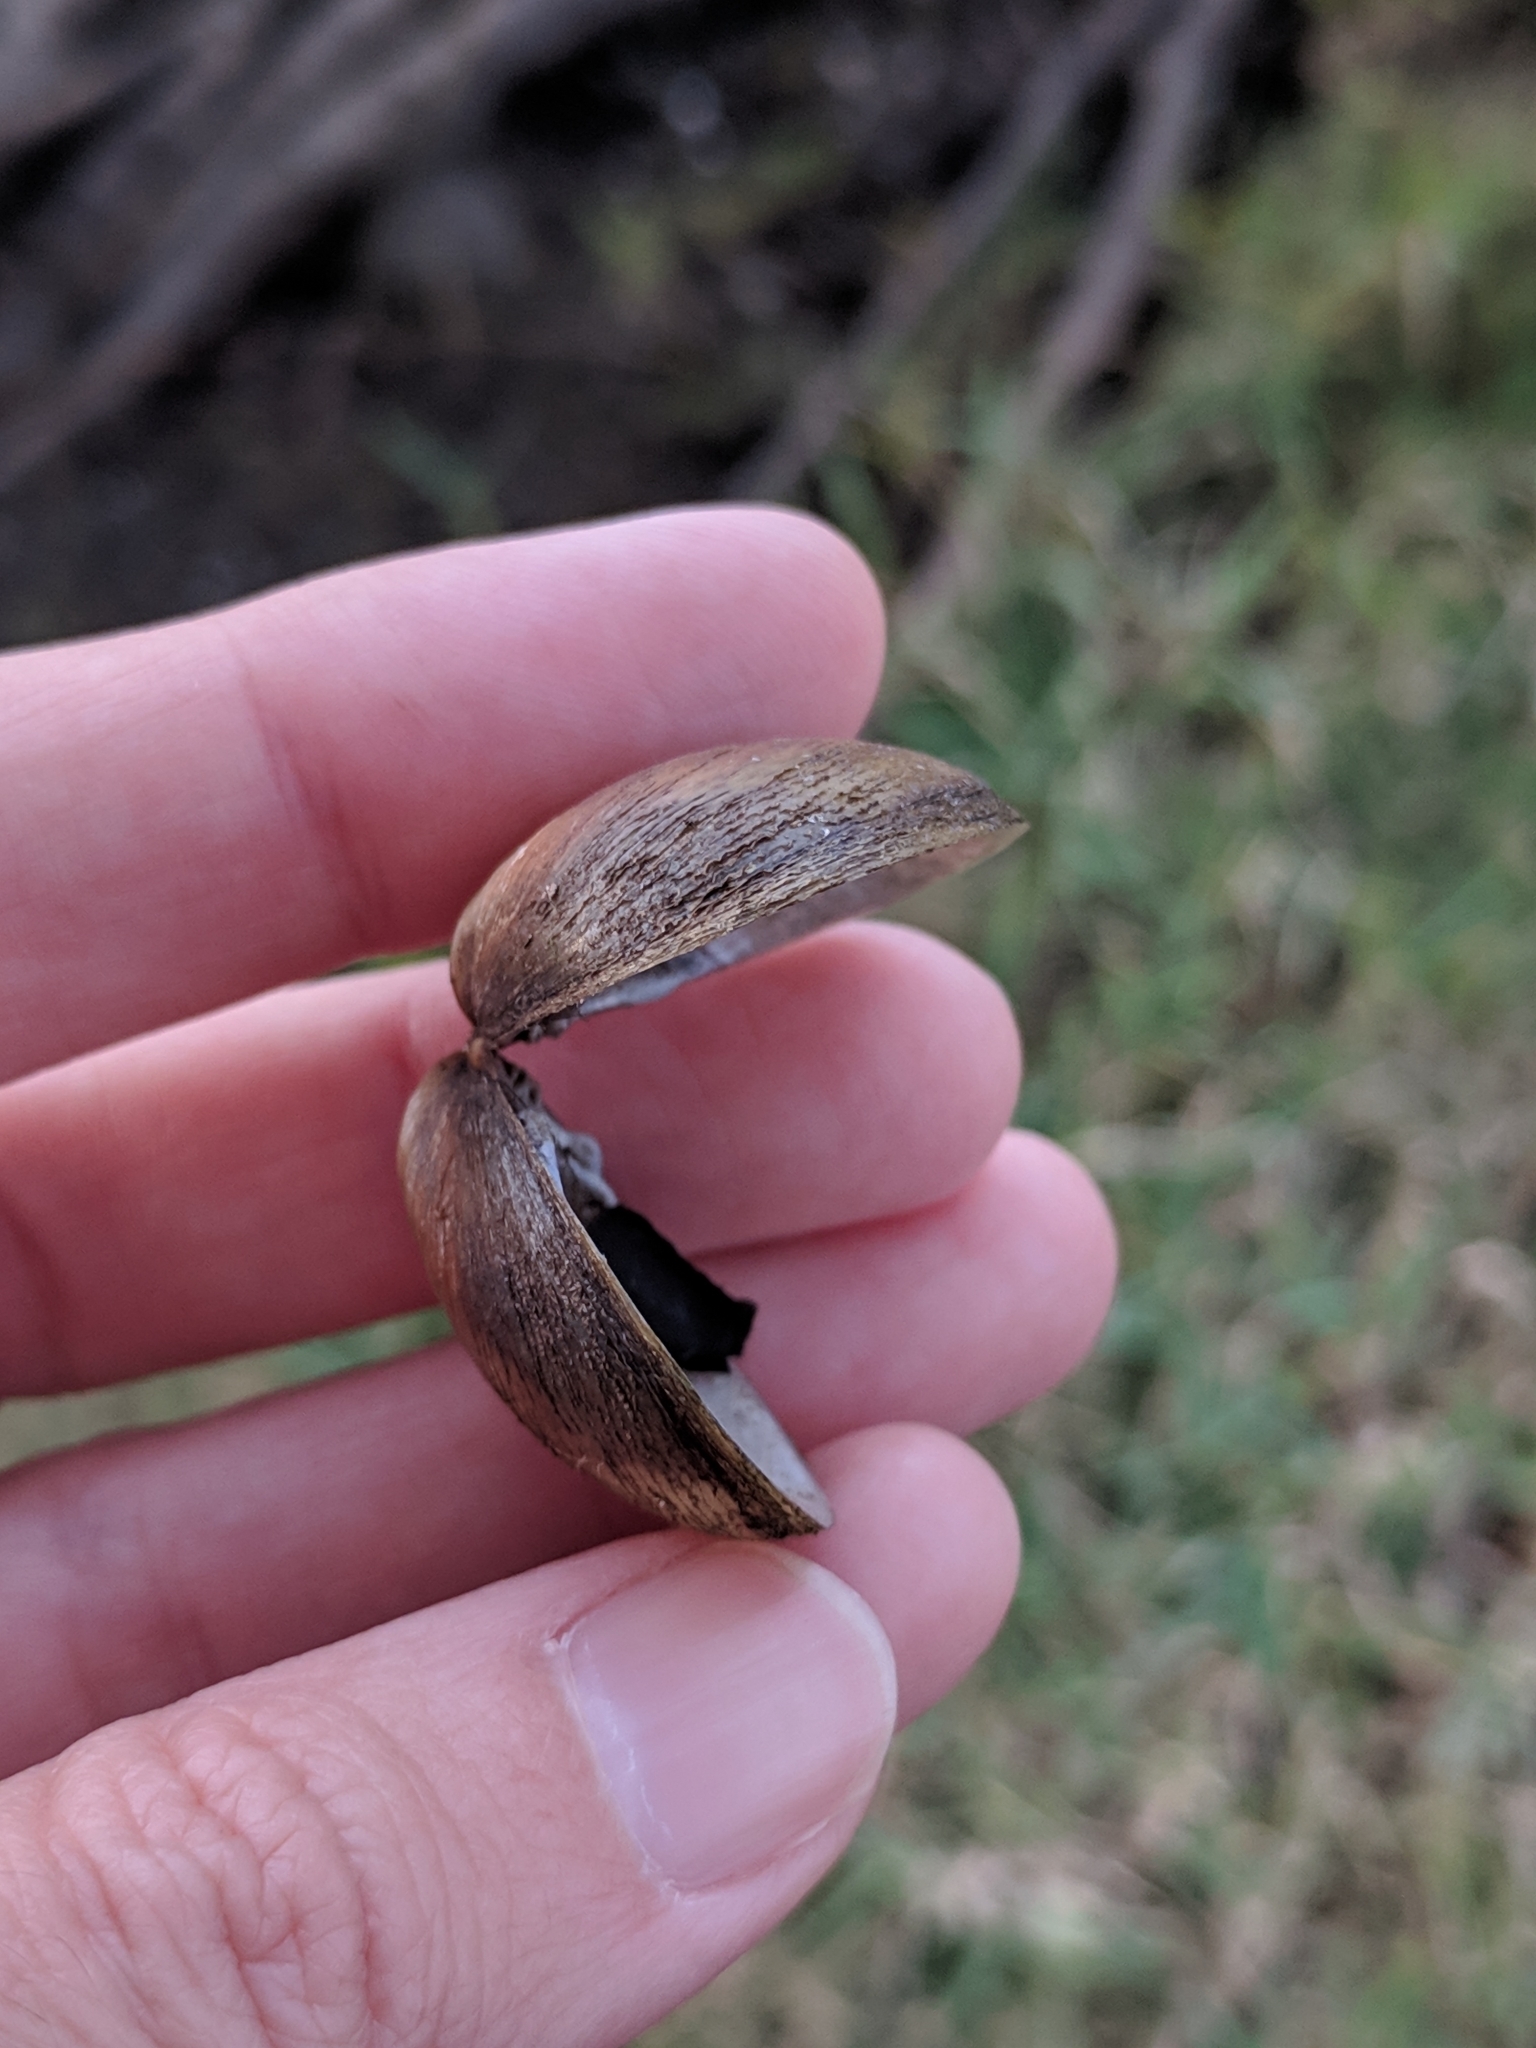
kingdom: Animalia
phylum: Mollusca
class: Bivalvia
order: Venerida
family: Cyrenidae
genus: Polymesoda
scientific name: Polymesoda caroliniana
